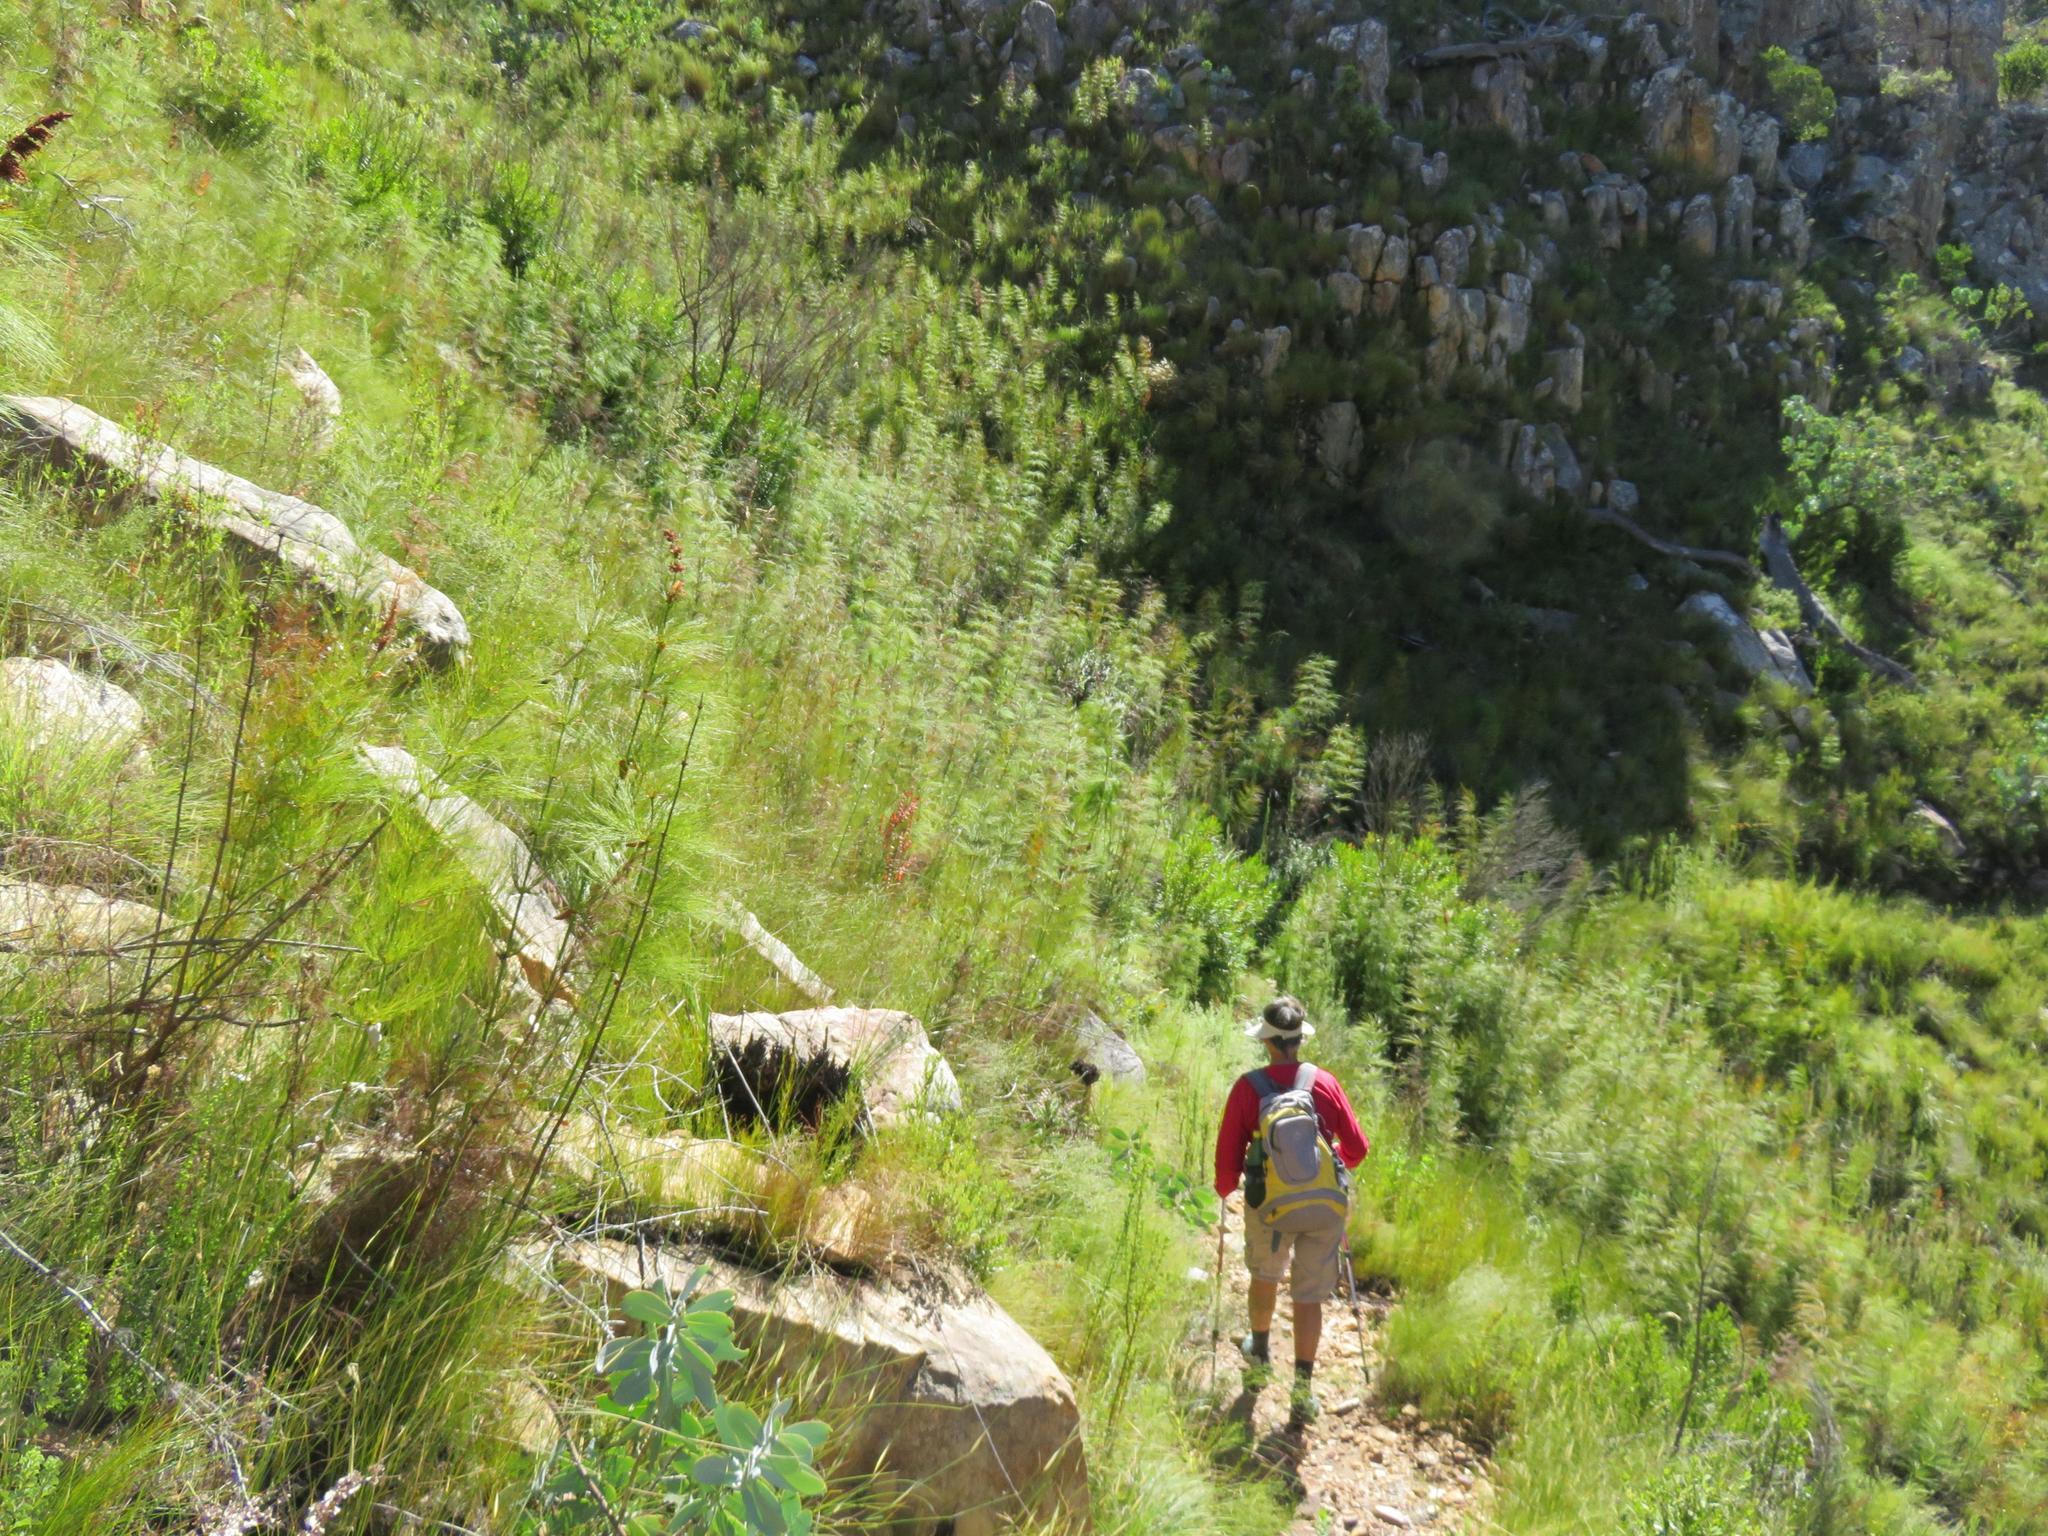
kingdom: Plantae
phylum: Tracheophyta
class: Liliopsida
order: Poales
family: Restionaceae
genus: Elegia
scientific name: Elegia capensis
